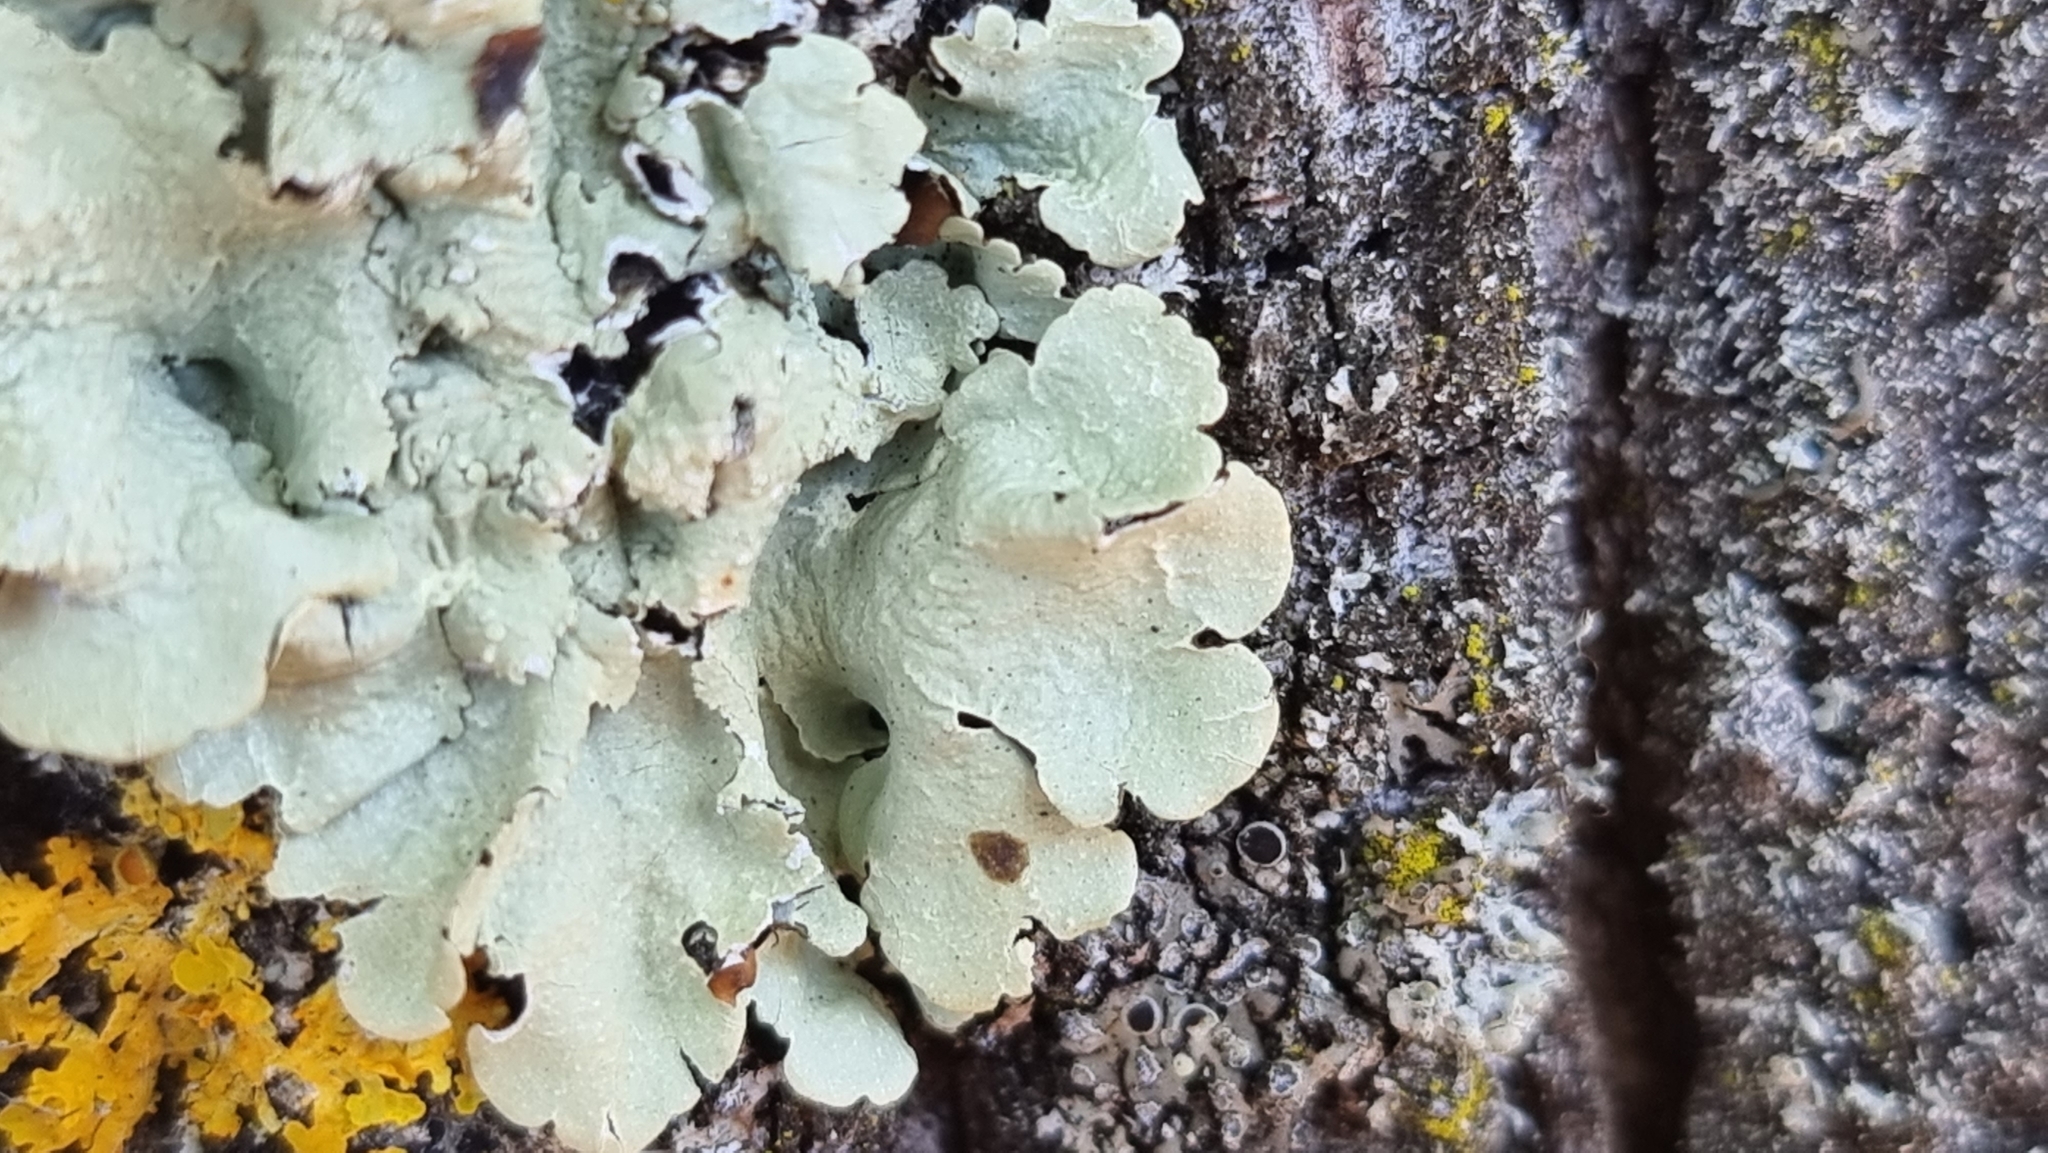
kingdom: Fungi
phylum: Ascomycota
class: Lecanoromycetes
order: Lecanorales
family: Parmeliaceae
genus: Flavoparmelia
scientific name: Flavoparmelia
